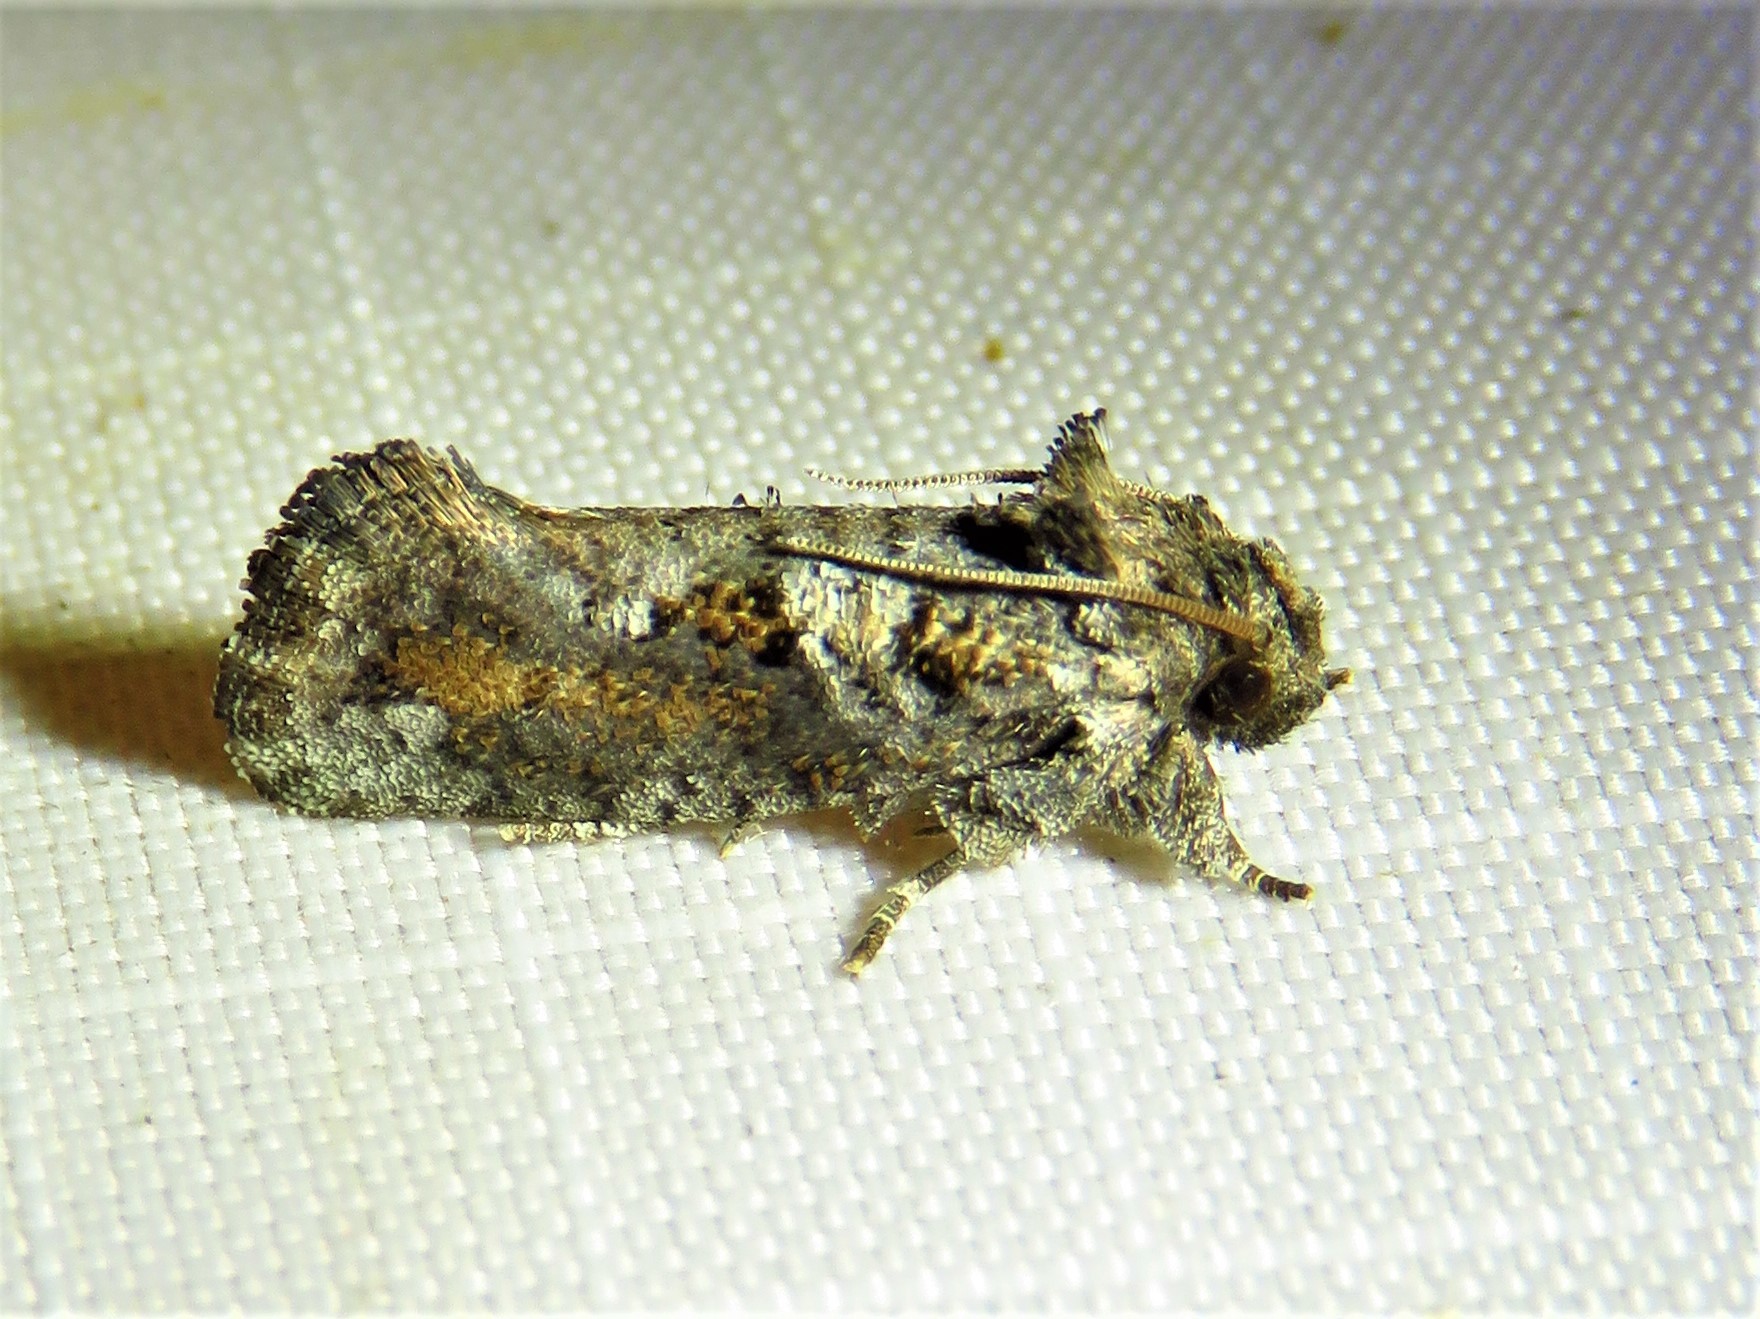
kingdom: Animalia
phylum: Arthropoda
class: Insecta
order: Lepidoptera
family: Tineidae
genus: Acrolophus
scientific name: Acrolophus piger
